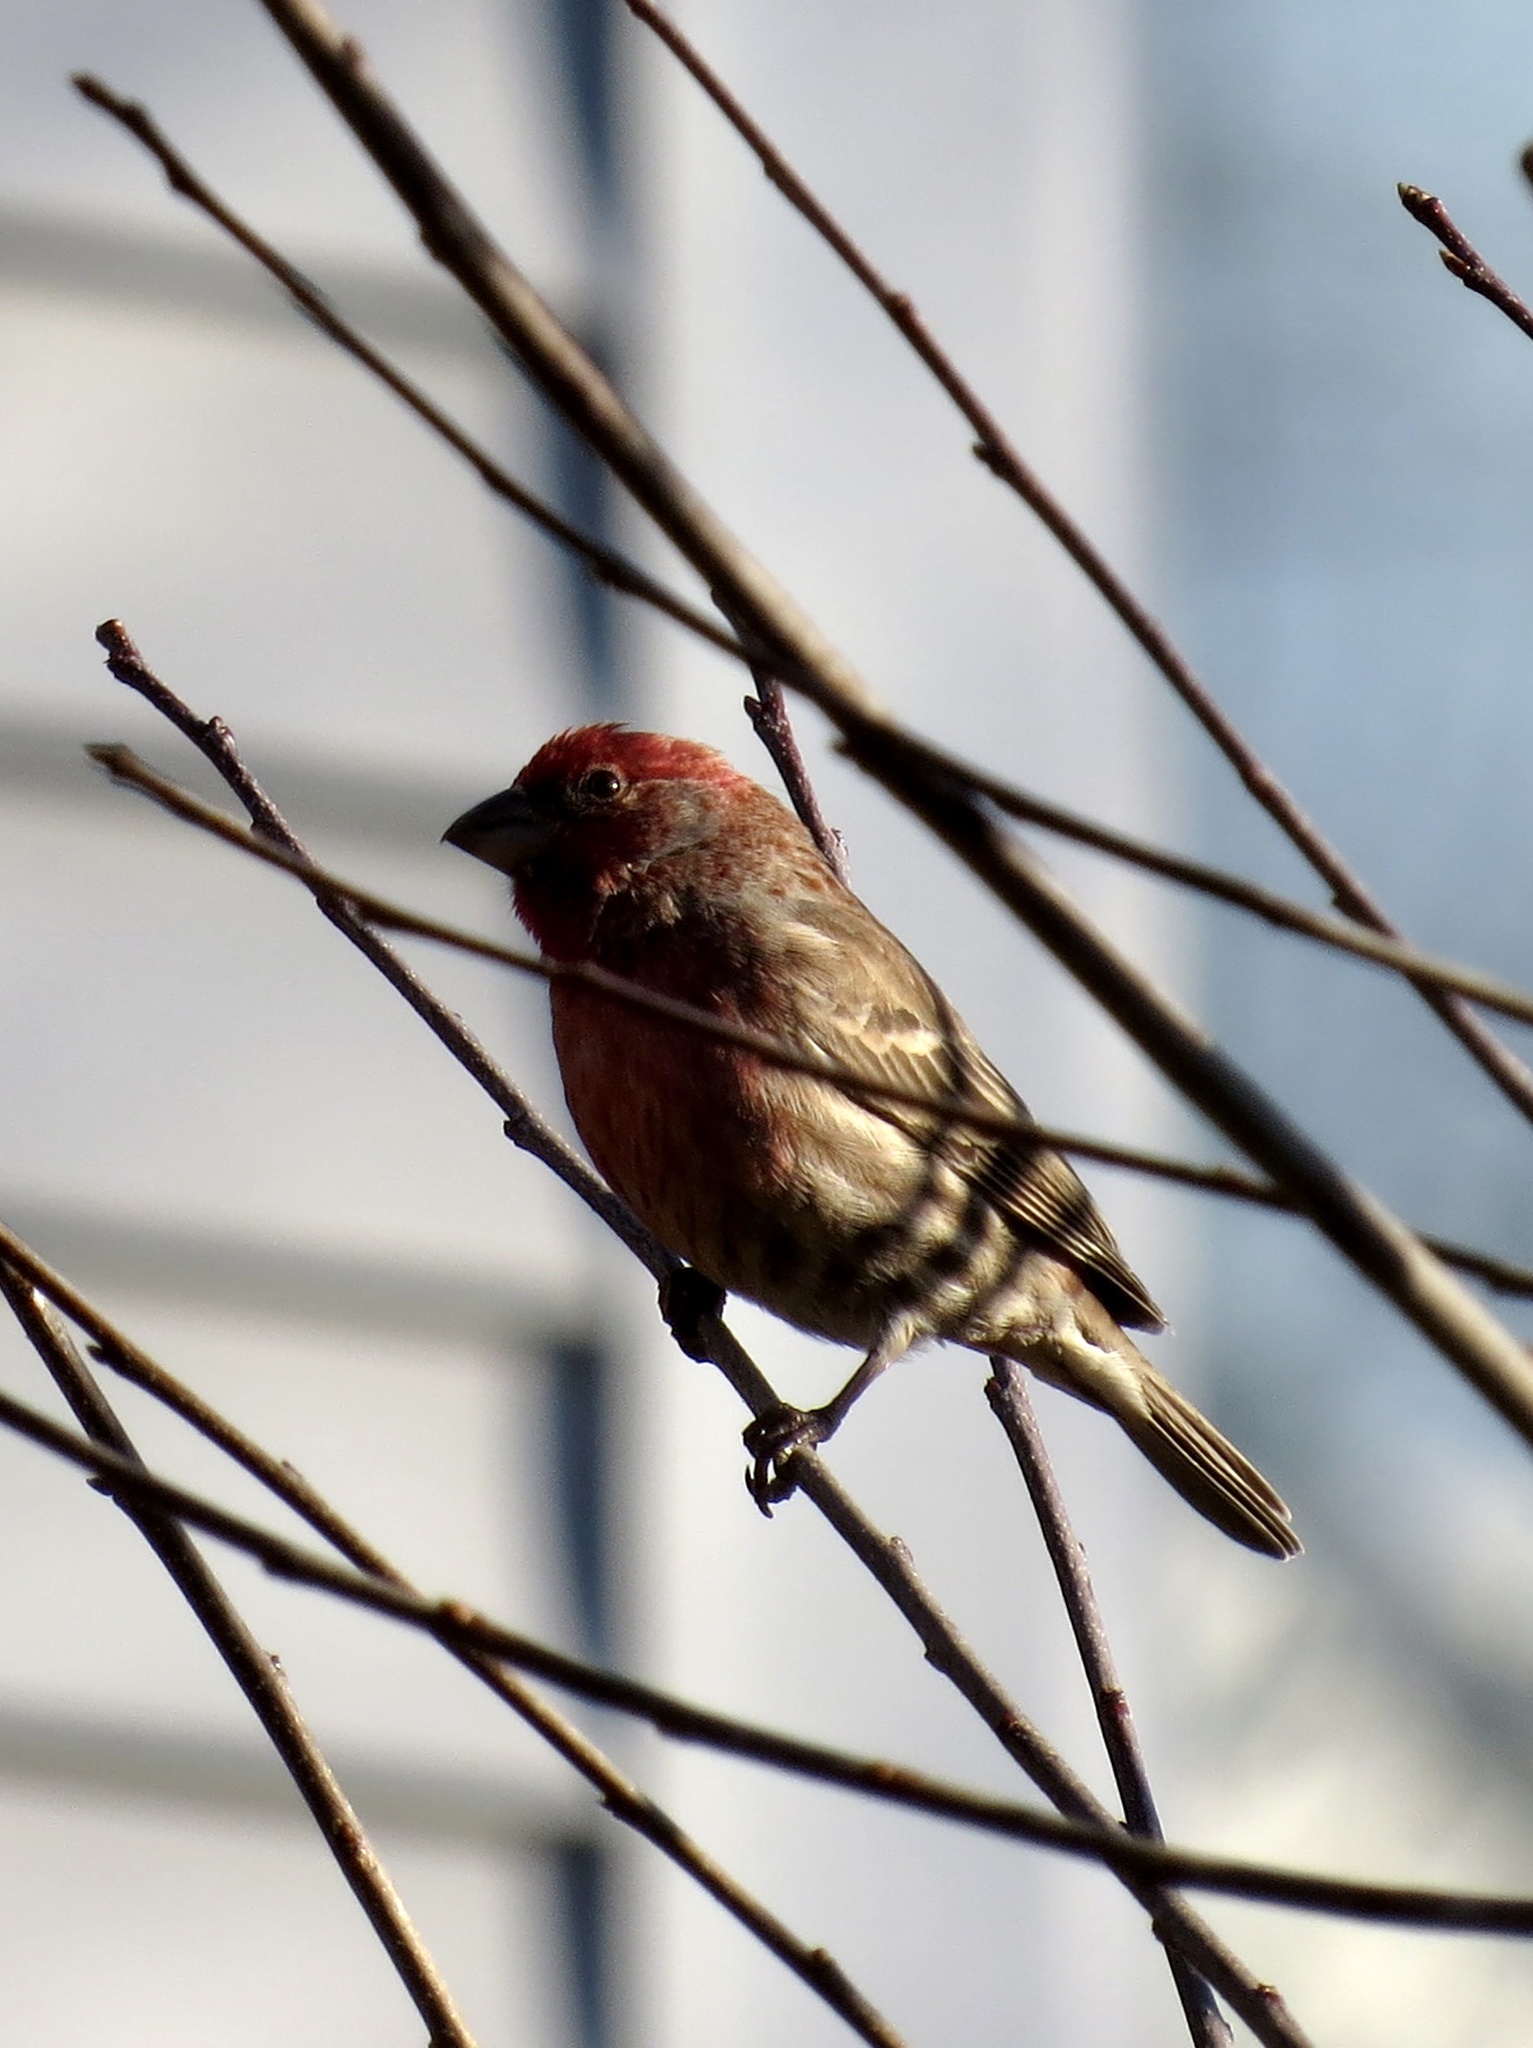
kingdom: Animalia
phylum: Chordata
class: Aves
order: Passeriformes
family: Fringillidae
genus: Haemorhous
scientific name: Haemorhous mexicanus
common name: House finch
